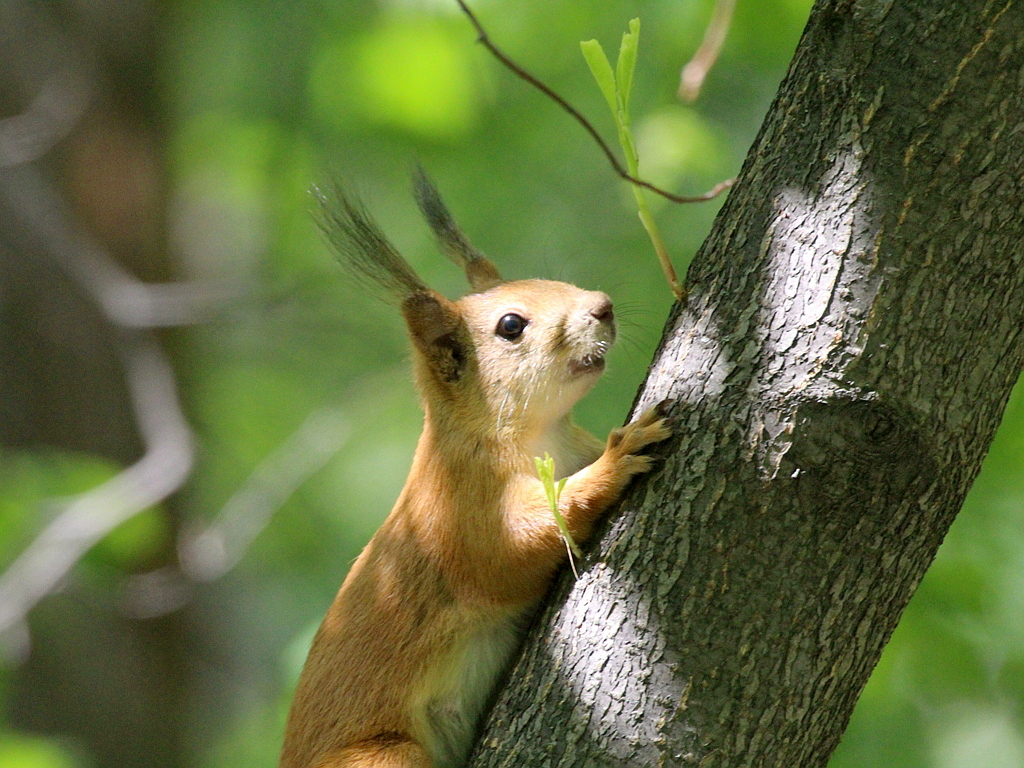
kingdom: Animalia
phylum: Chordata
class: Mammalia
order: Rodentia
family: Sciuridae
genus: Sciurus
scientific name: Sciurus vulgaris
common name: Eurasian red squirrel
